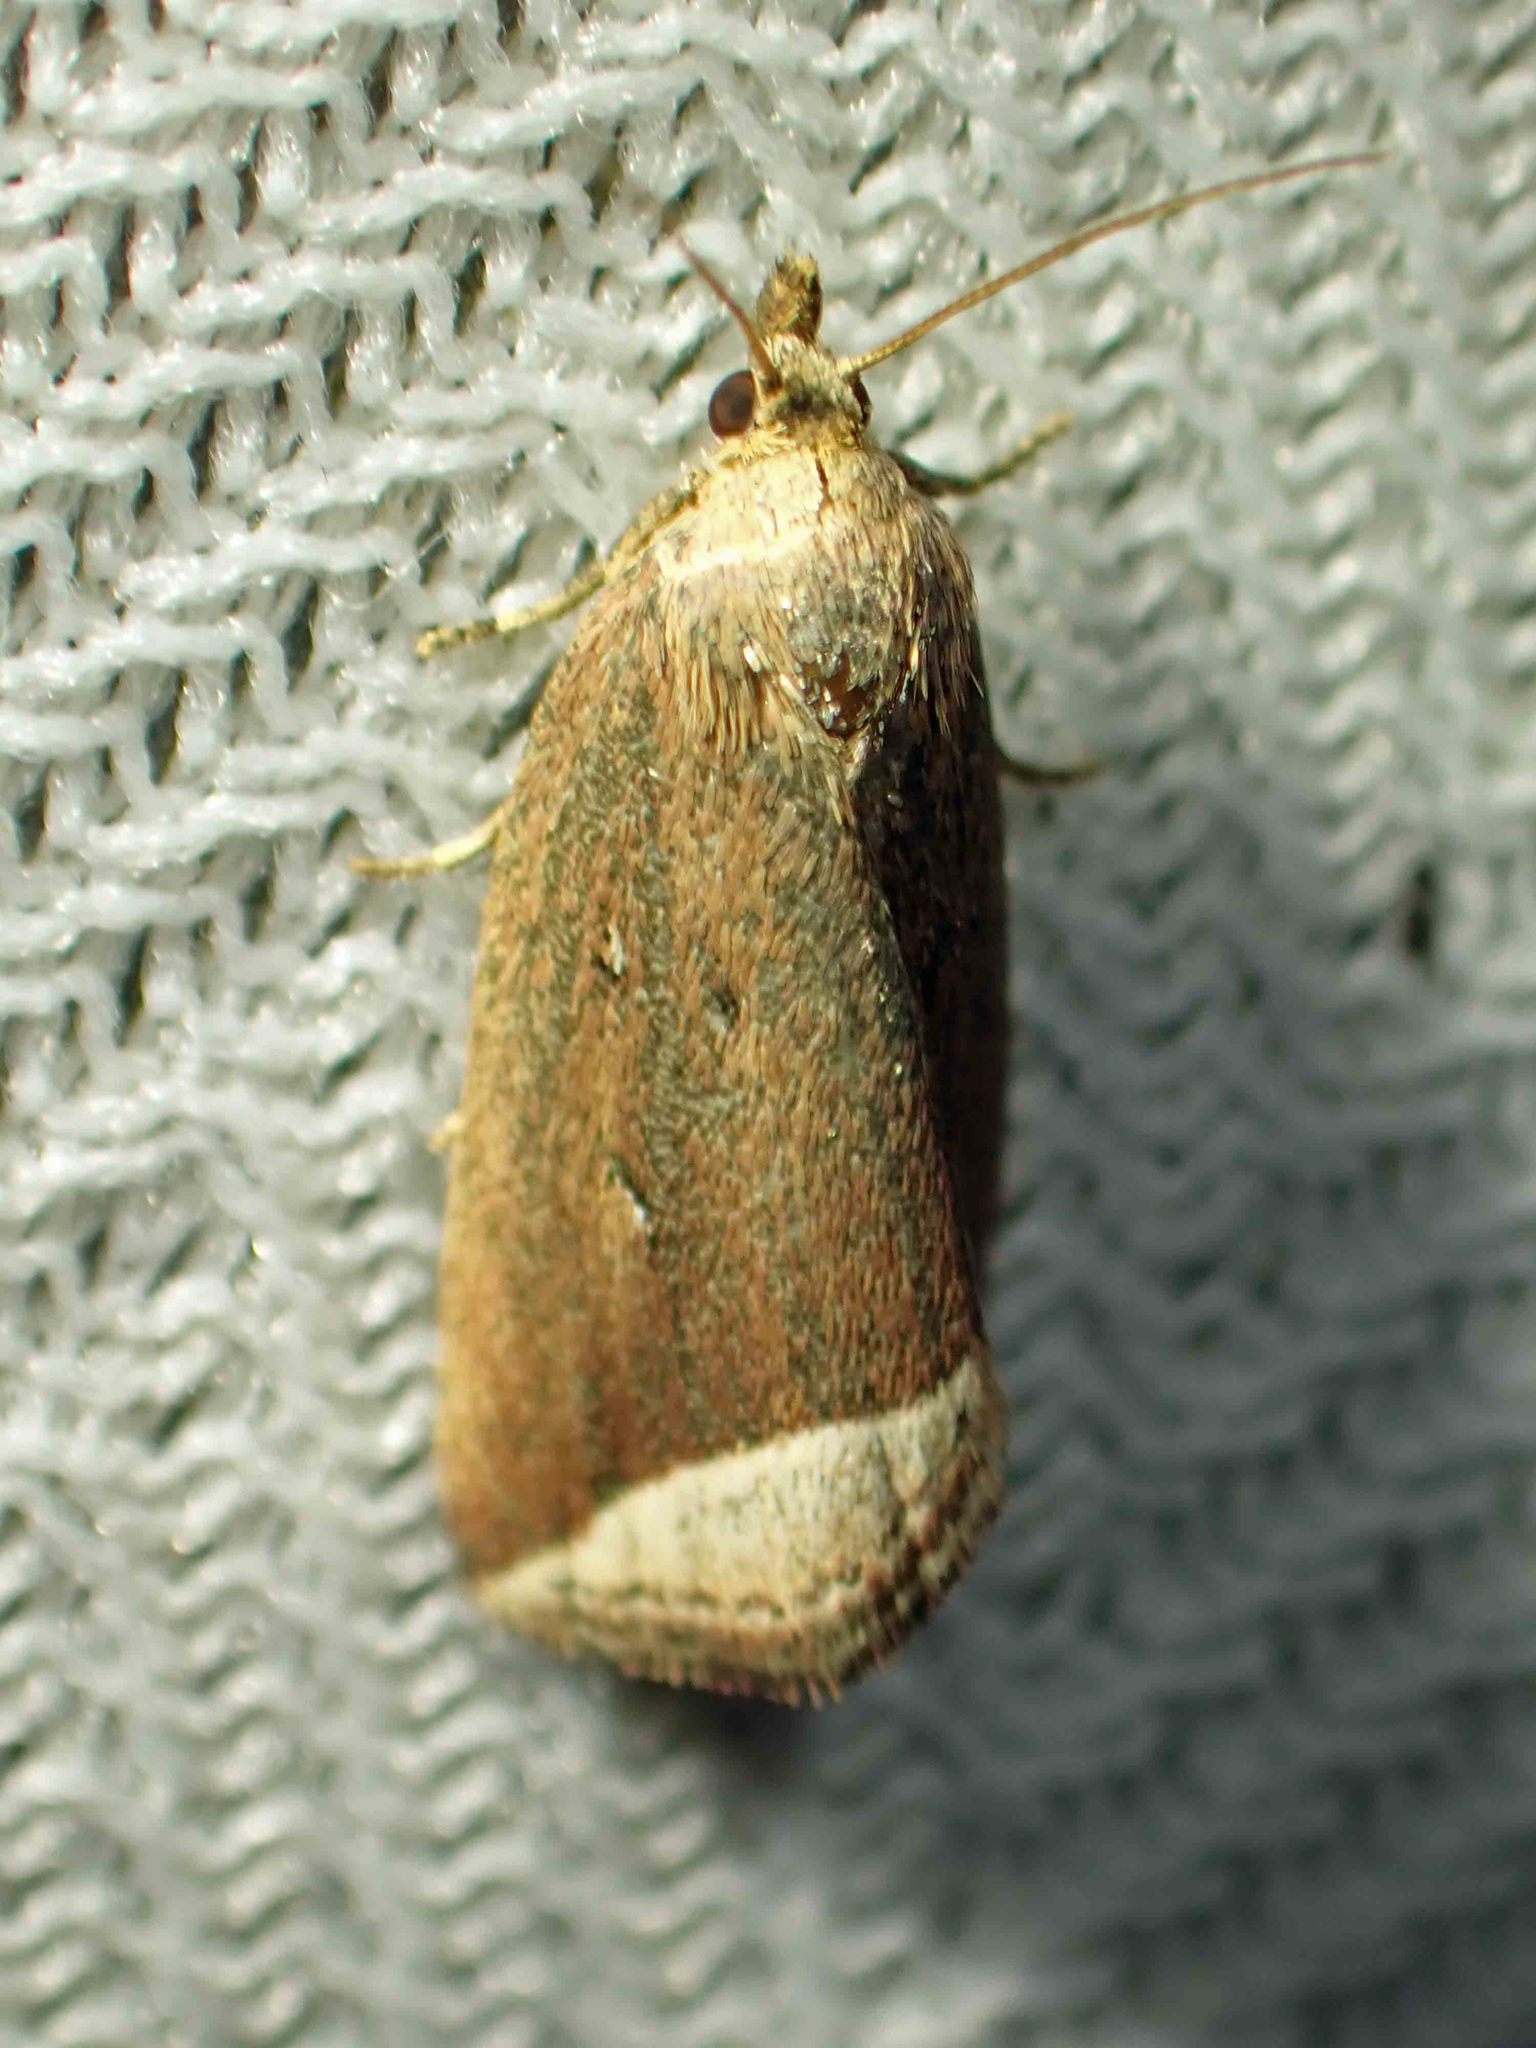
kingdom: Animalia
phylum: Arthropoda
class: Insecta
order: Lepidoptera
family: Erebidae
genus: Capis
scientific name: Capis curvata
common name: Curved halter moth
